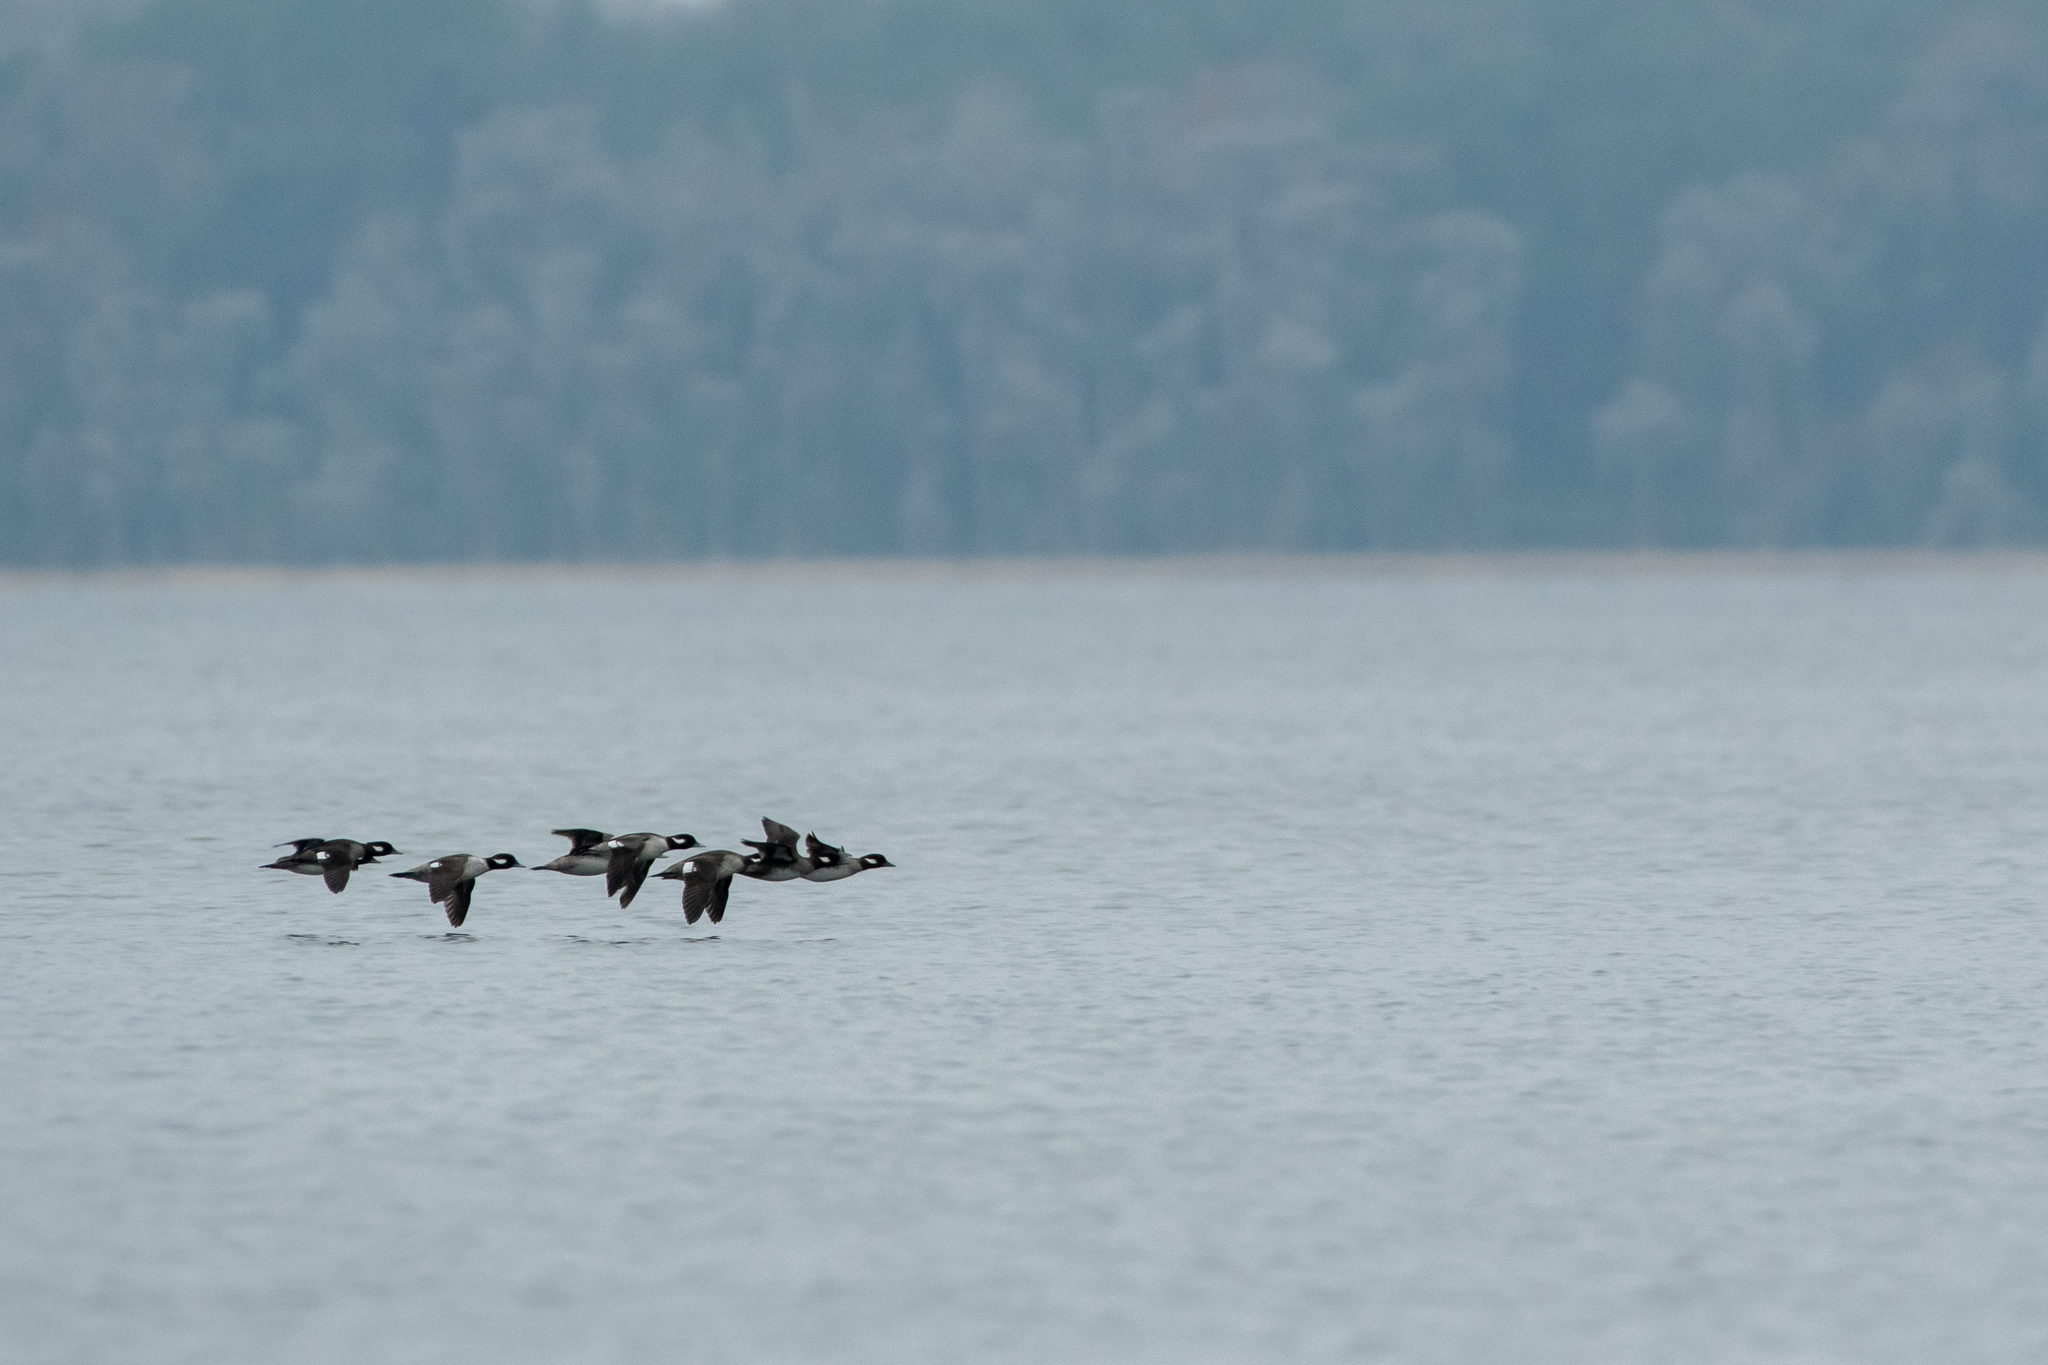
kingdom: Animalia
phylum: Chordata
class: Aves
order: Anseriformes
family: Anatidae
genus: Bucephala
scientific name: Bucephala albeola
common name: Bufflehead
